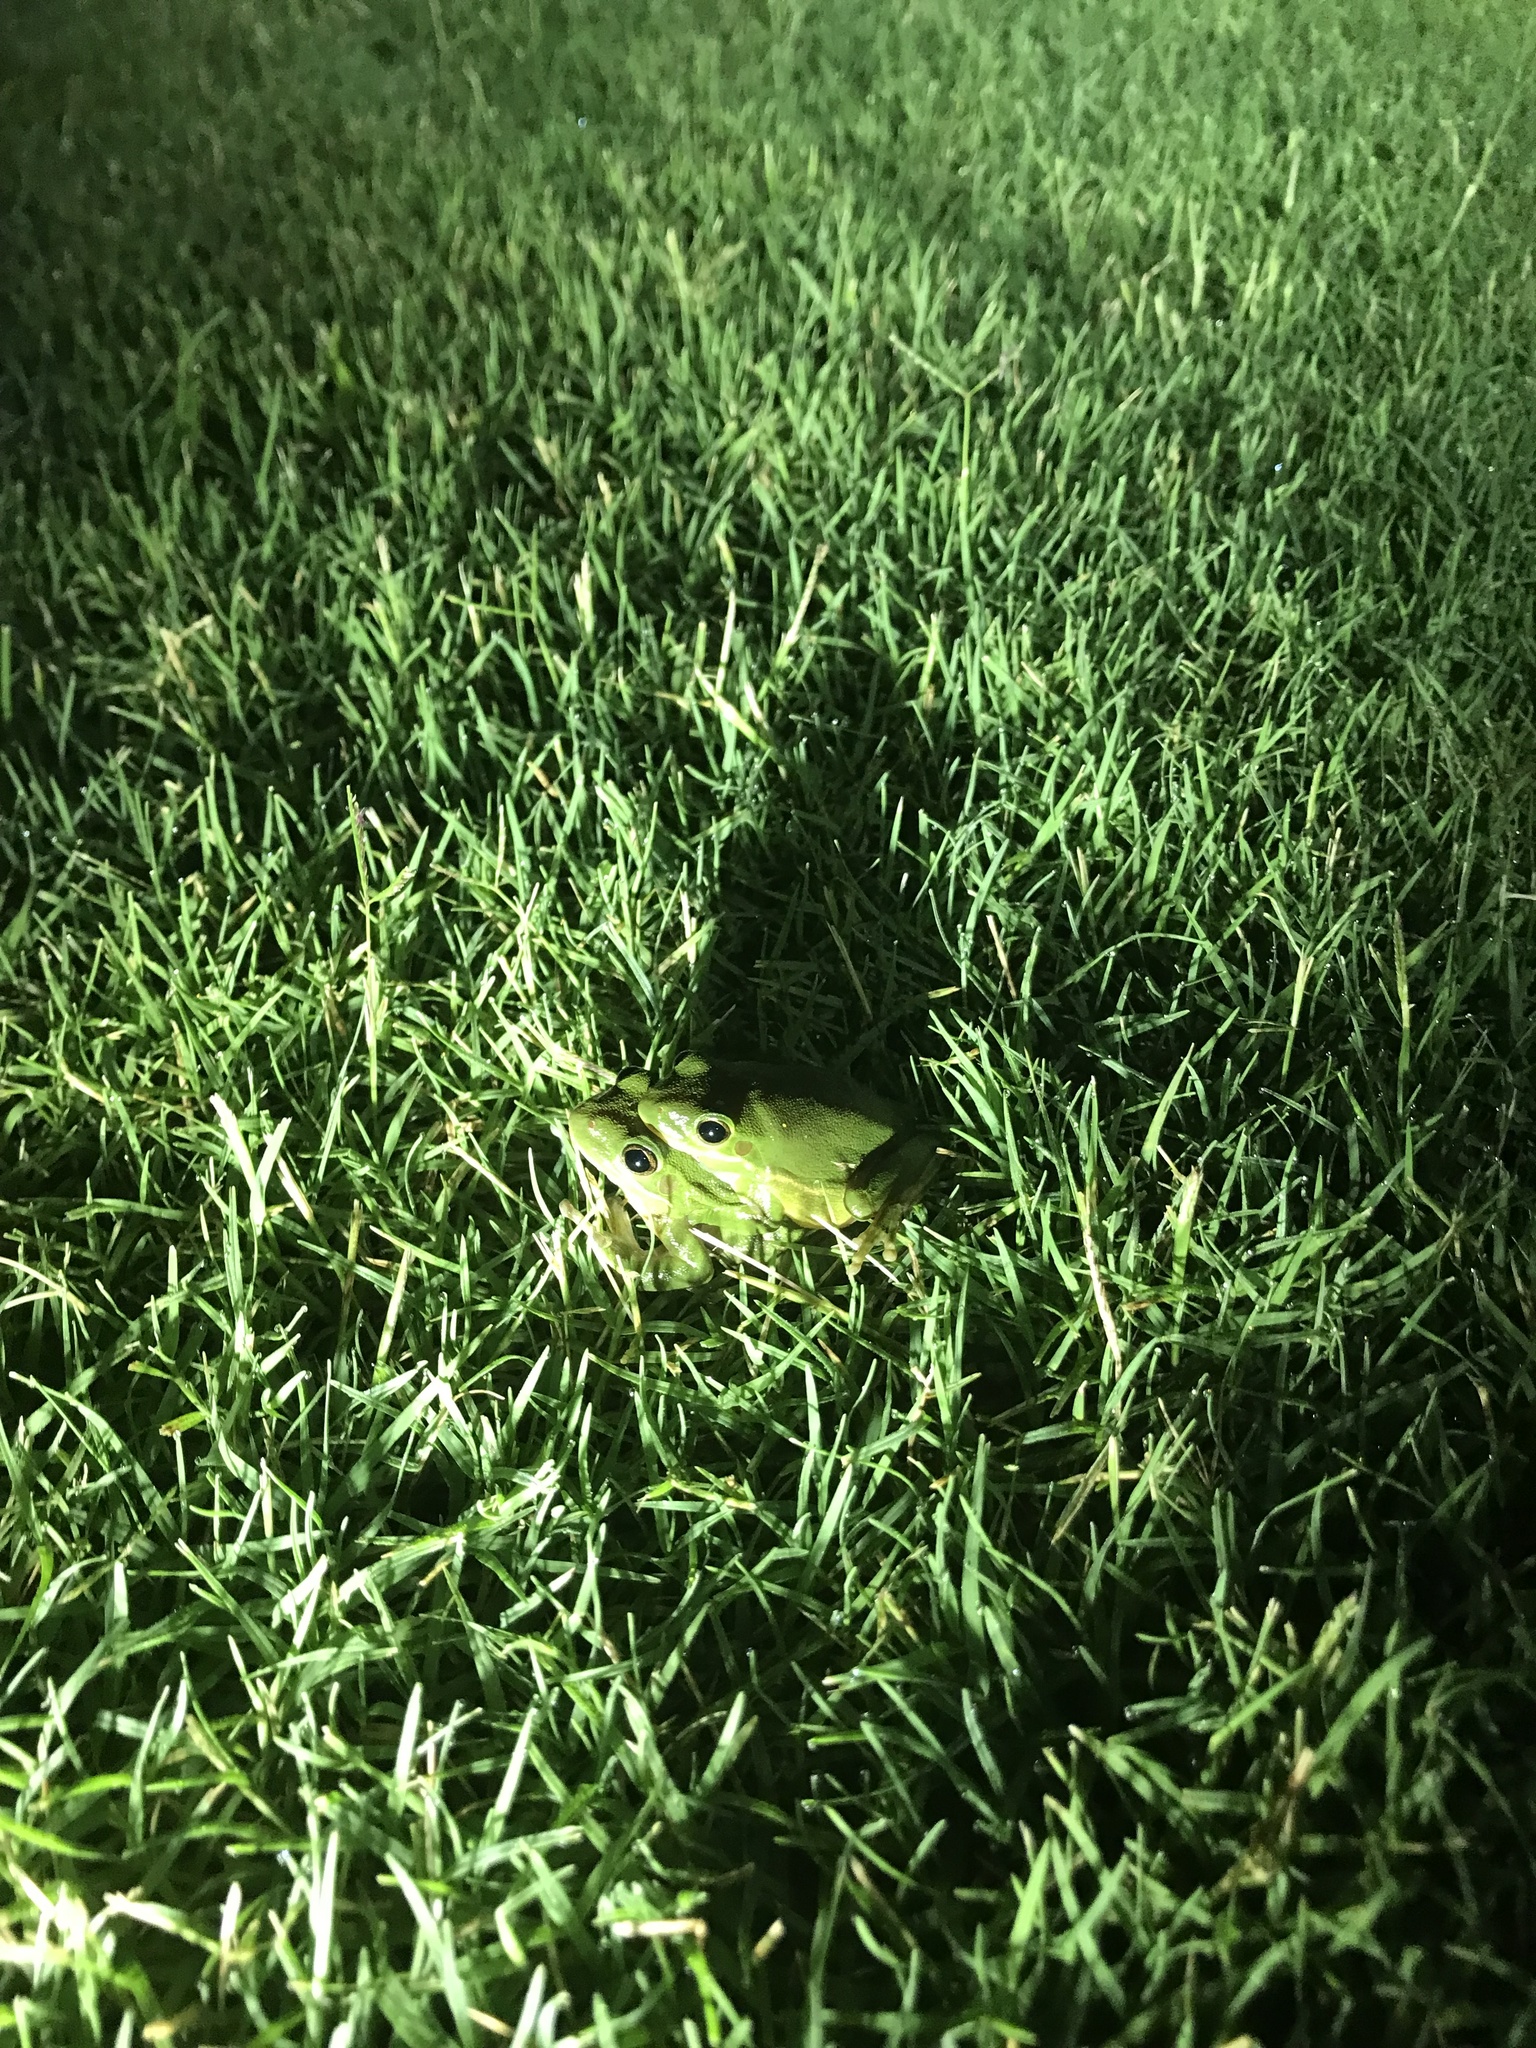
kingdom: Animalia
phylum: Chordata
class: Amphibia
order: Anura
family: Hylidae
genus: Dryophytes
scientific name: Dryophytes cinereus
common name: Green treefrog
